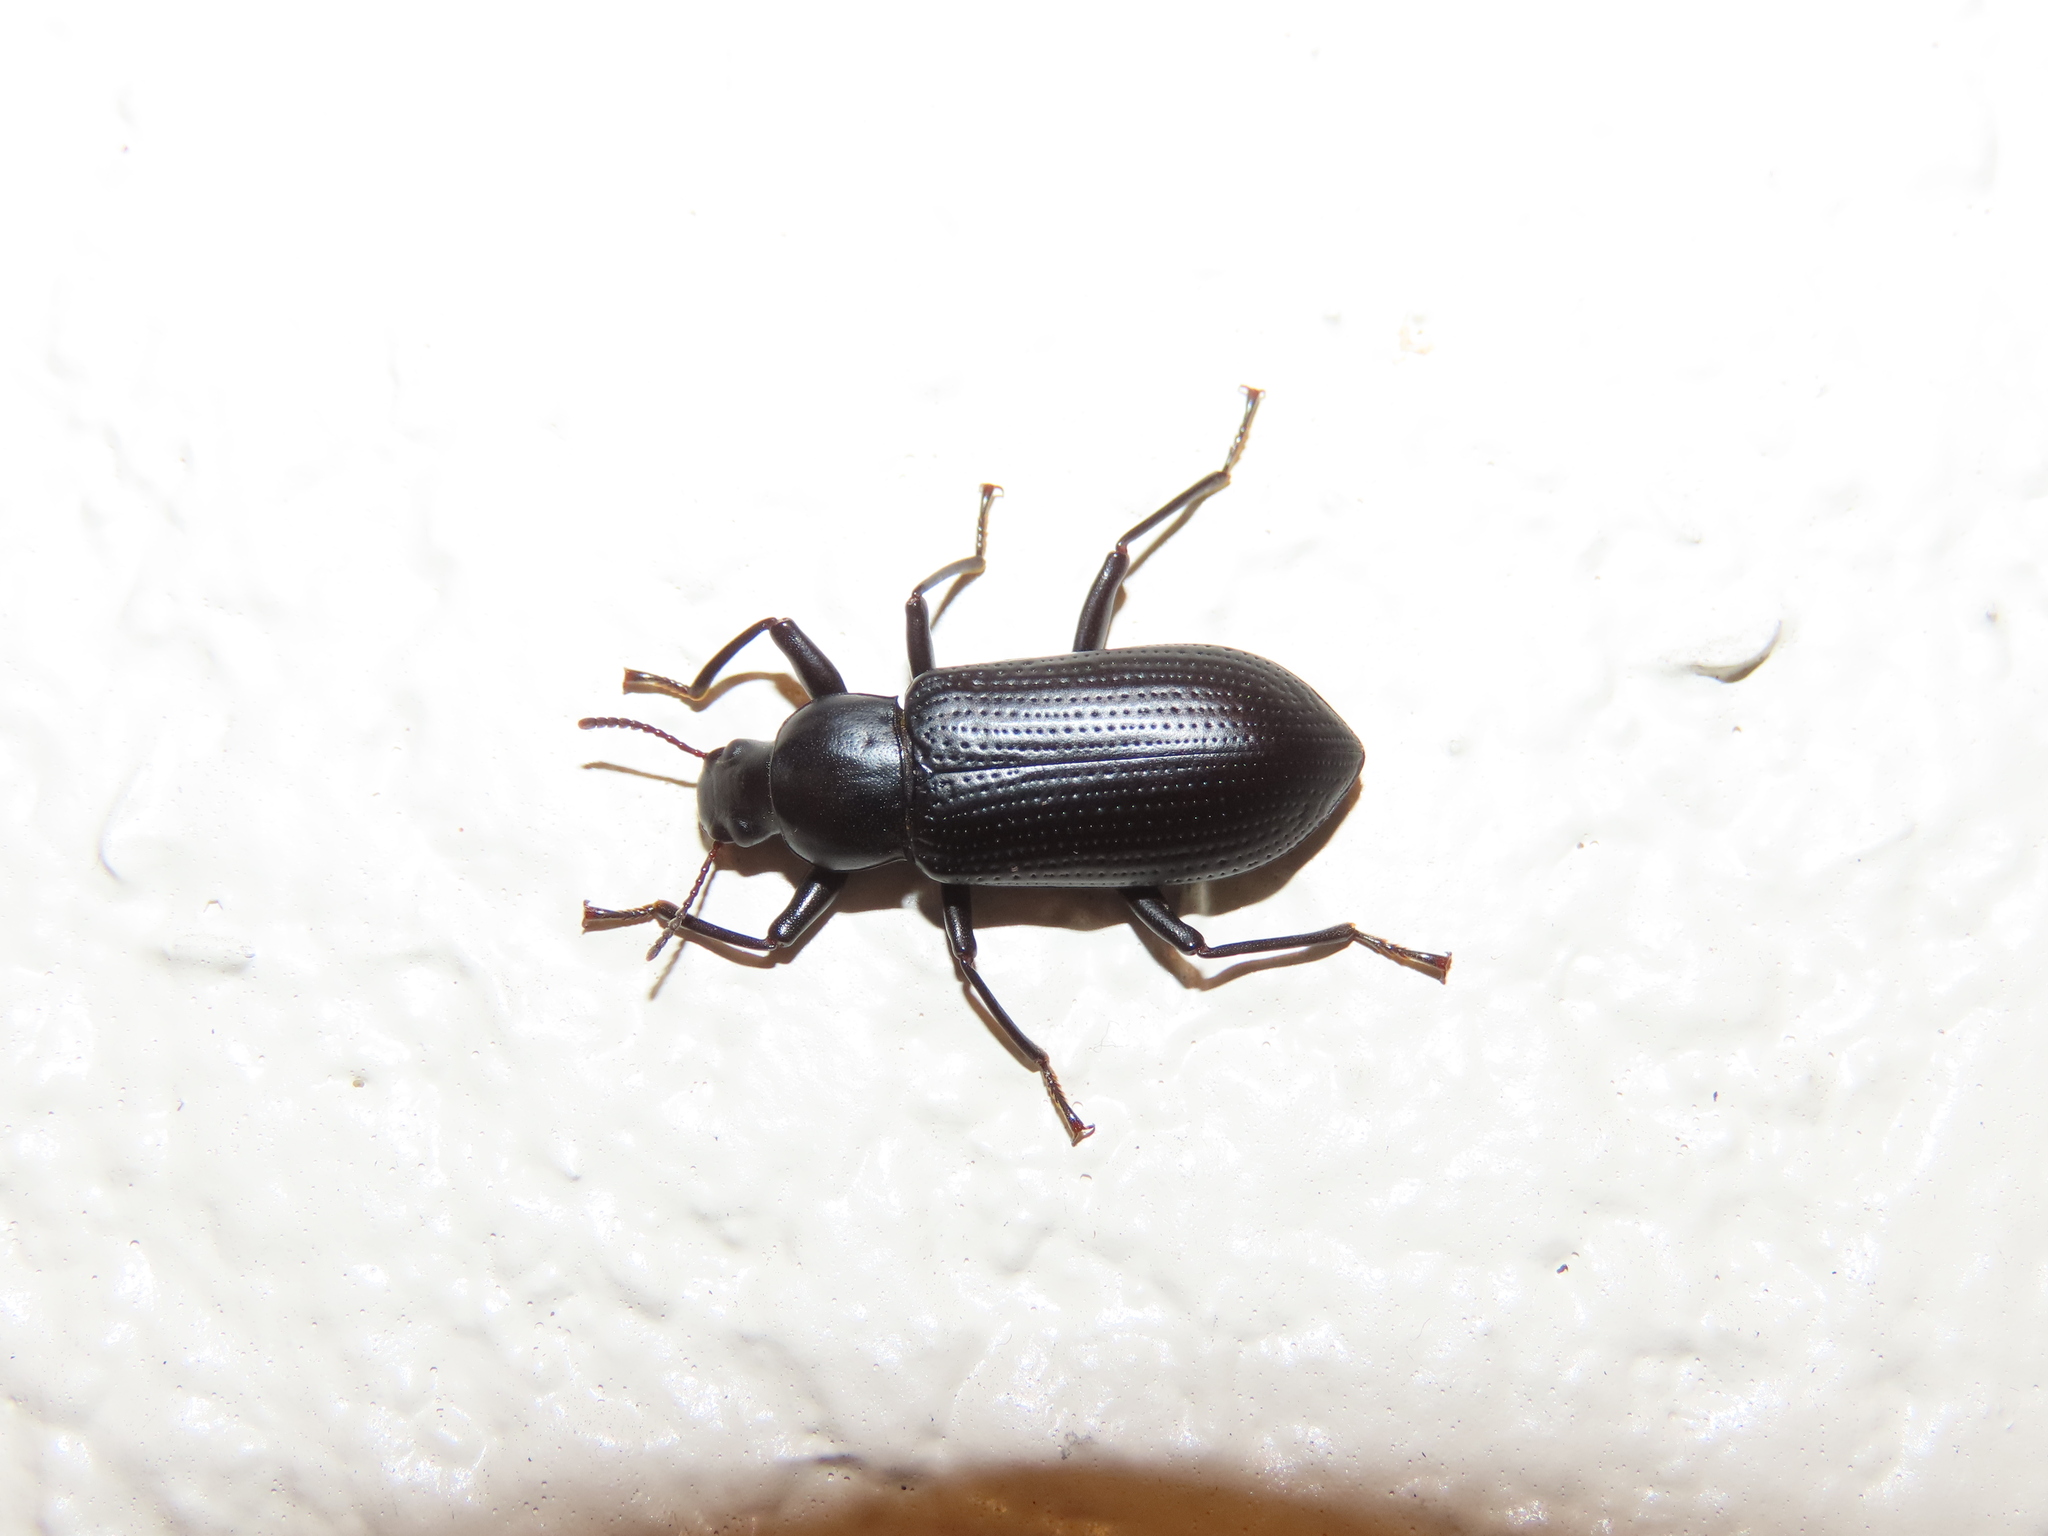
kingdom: Animalia
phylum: Arthropoda
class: Insecta
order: Coleoptera
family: Tenebrionidae
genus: Alobates
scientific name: Alobates pensylvanicus
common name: False mealworm beetle
